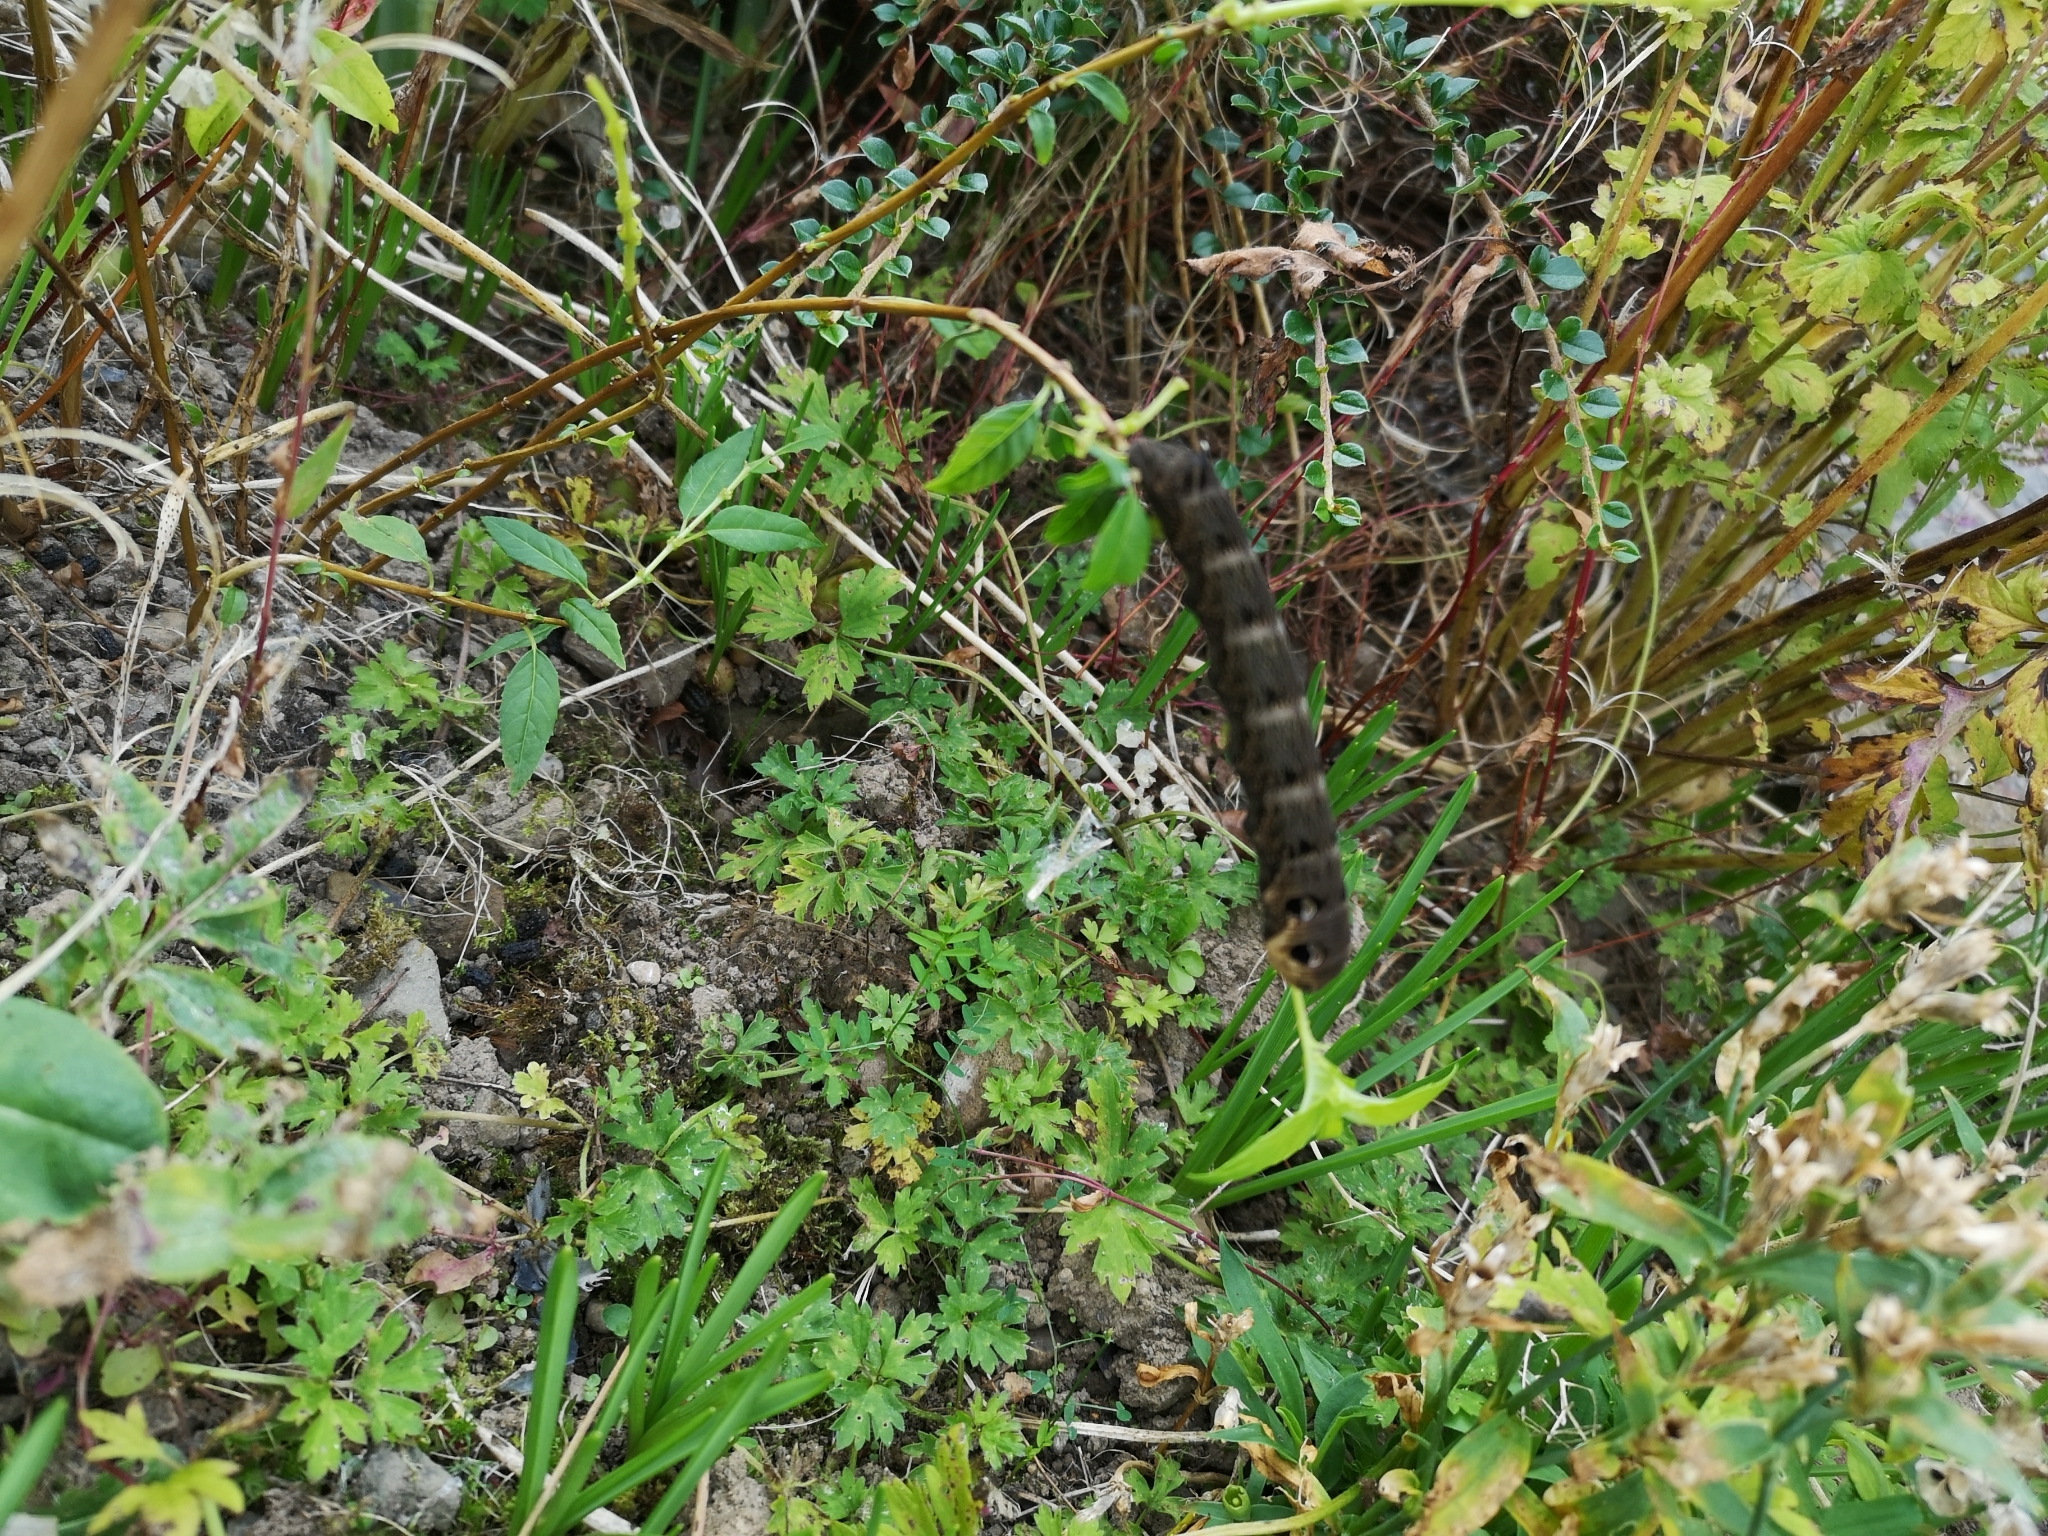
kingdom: Animalia
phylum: Arthropoda
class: Insecta
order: Lepidoptera
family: Sphingidae
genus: Deilephila
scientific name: Deilephila elpenor
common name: Elephant hawk-moth
